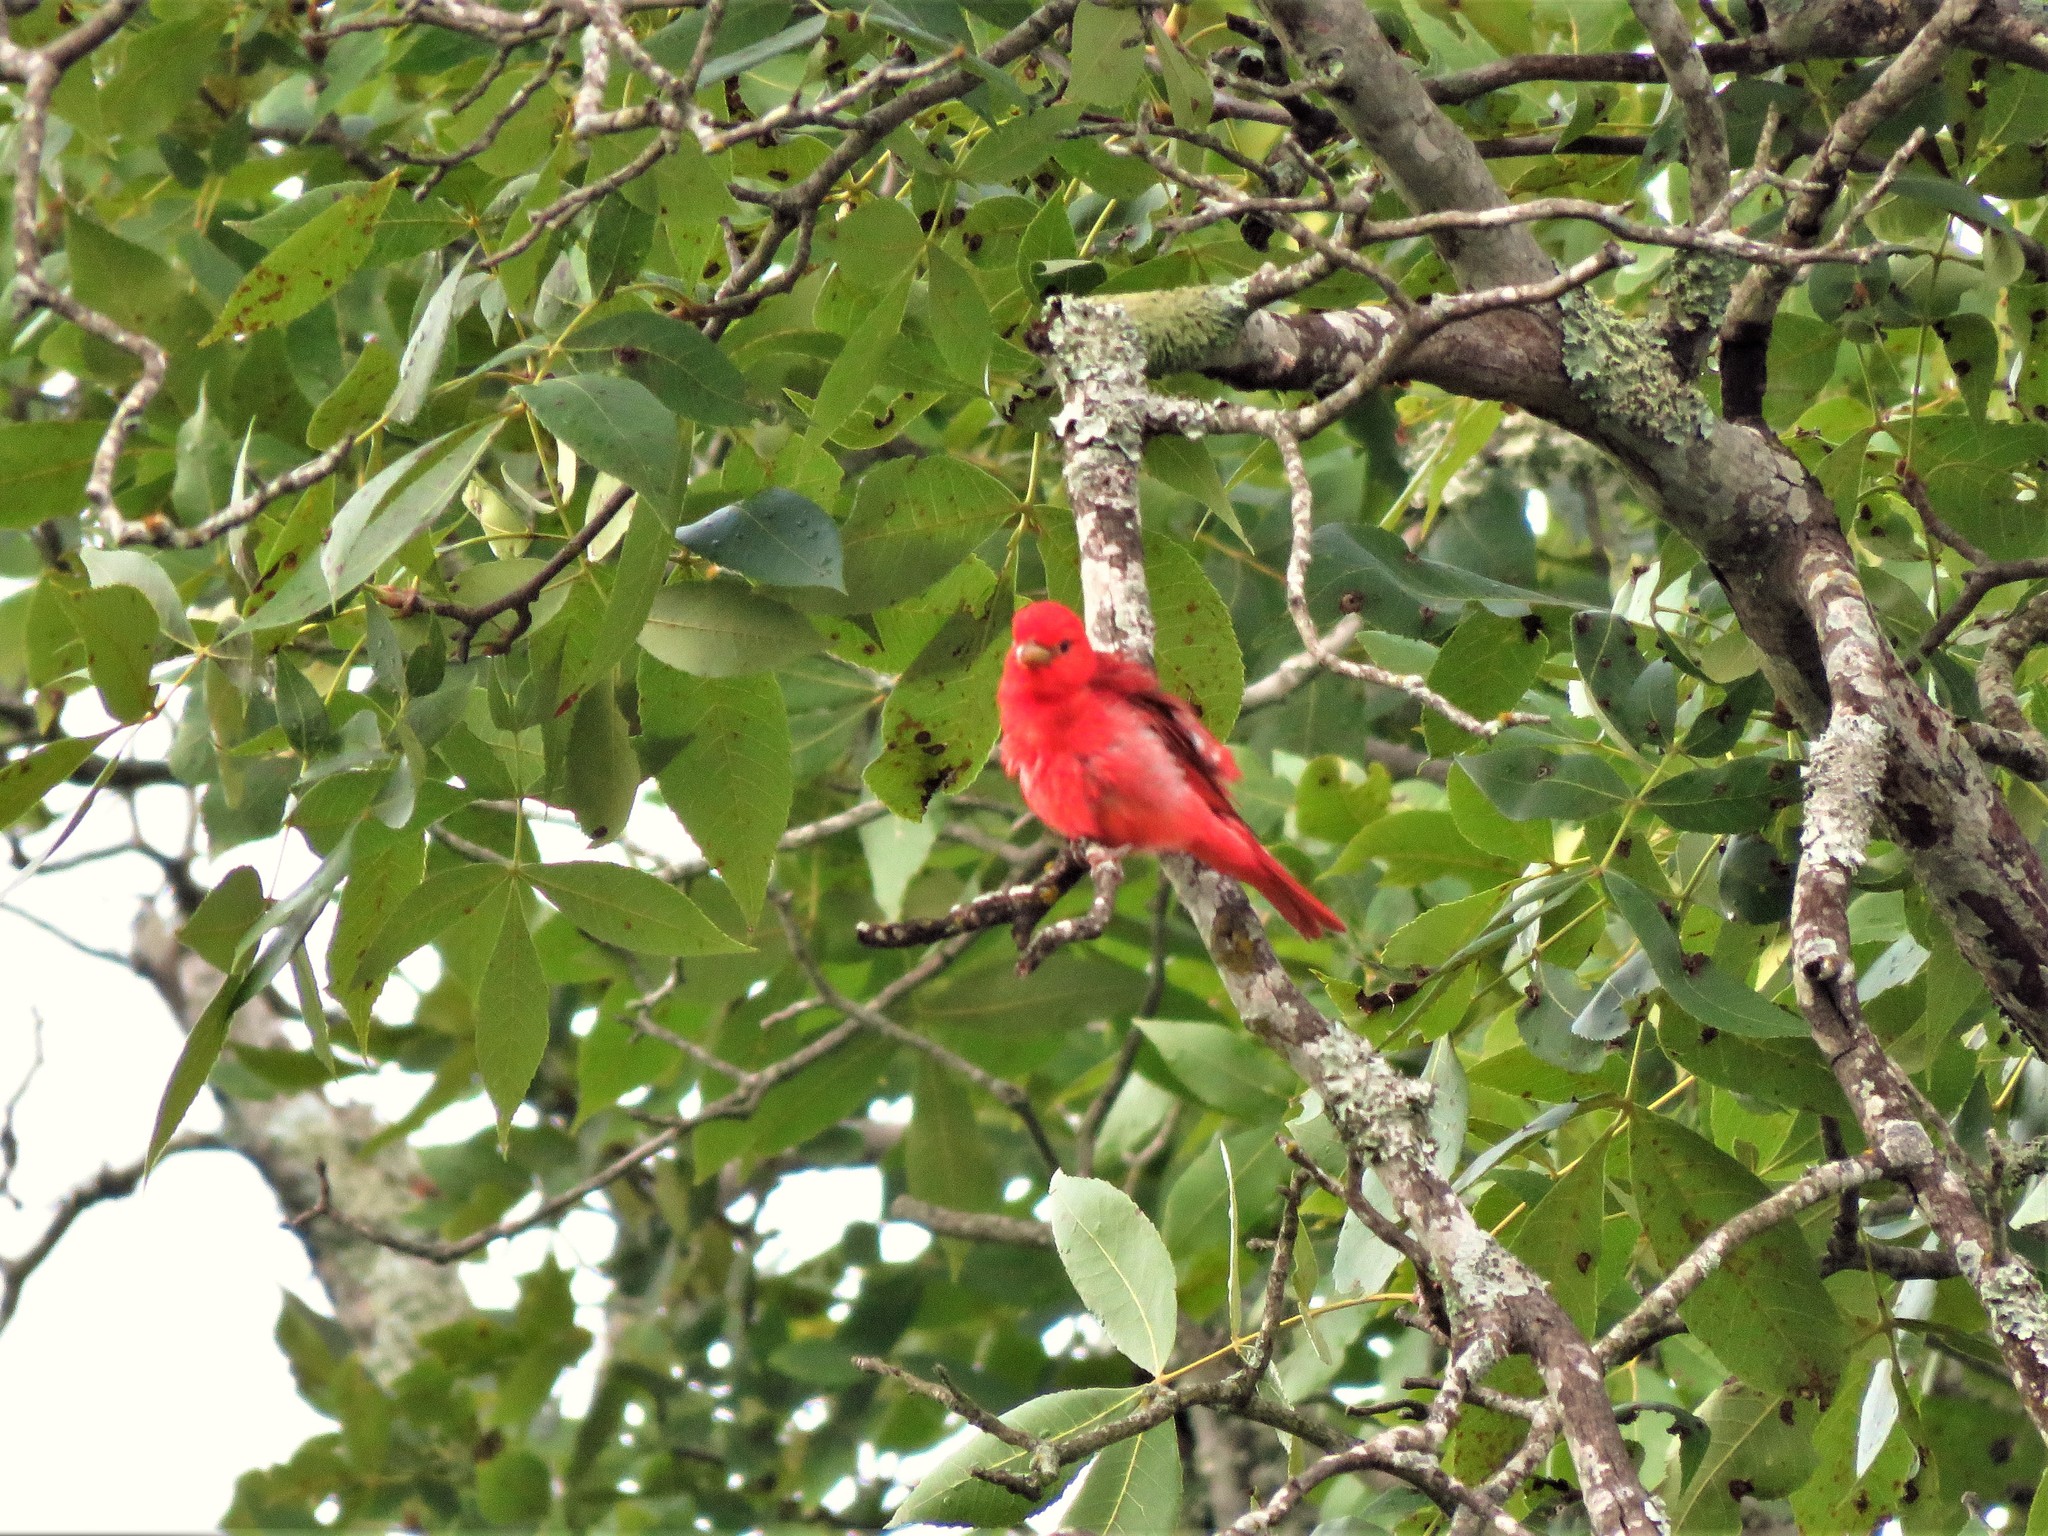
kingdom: Animalia
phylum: Chordata
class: Aves
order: Passeriformes
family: Cardinalidae
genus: Piranga
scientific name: Piranga rubra
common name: Summer tanager
